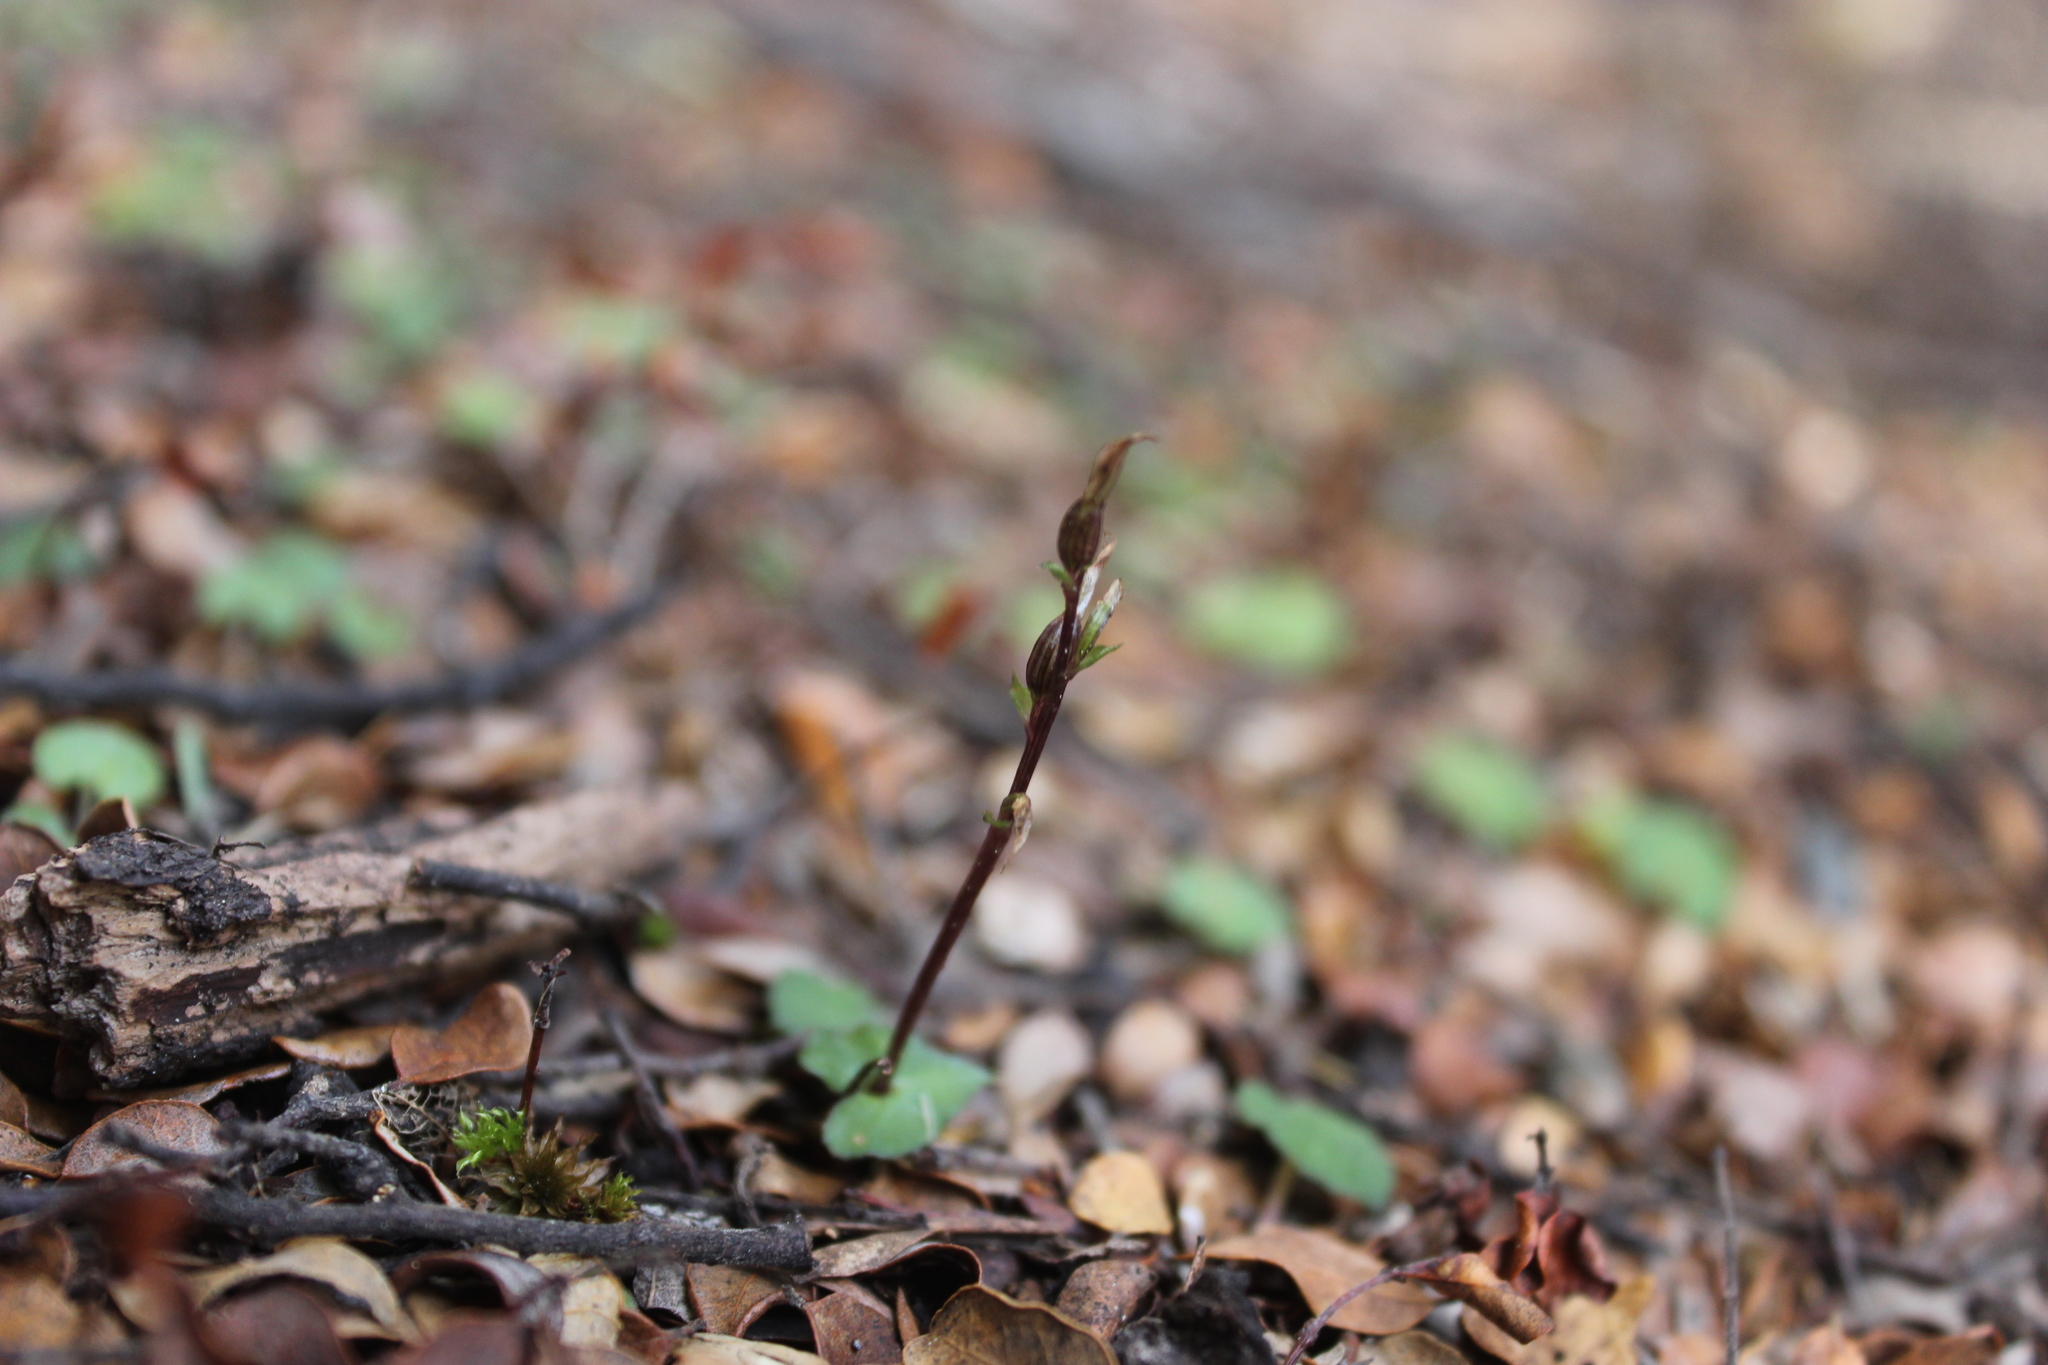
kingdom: Plantae
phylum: Tracheophyta
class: Liliopsida
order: Asparagales
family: Orchidaceae
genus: Acianthus
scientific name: Acianthus sinclairii
